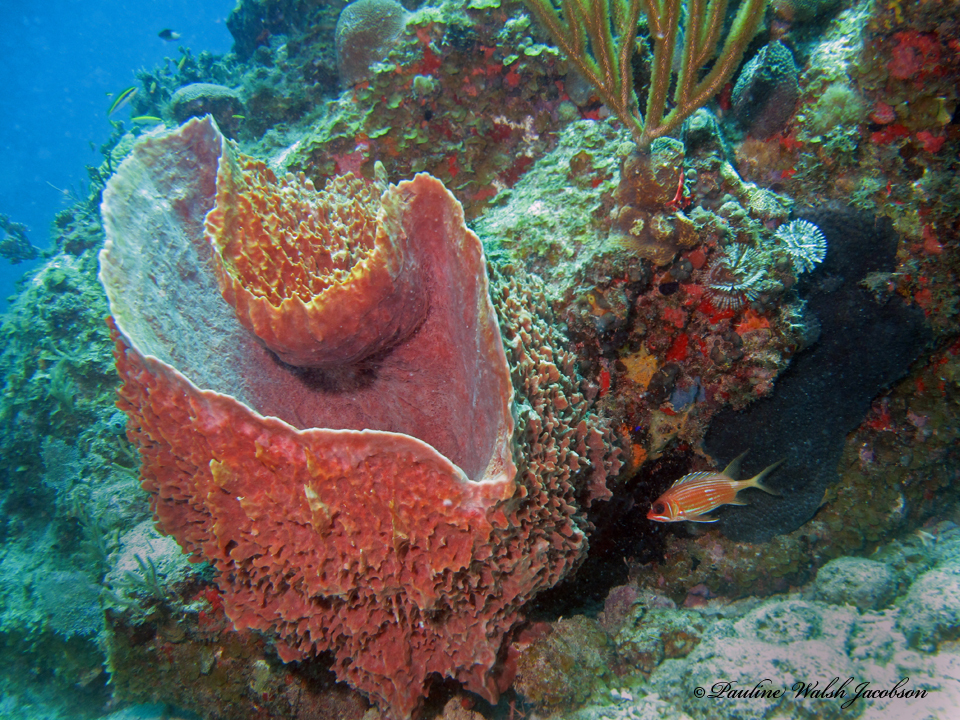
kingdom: Animalia
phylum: Porifera
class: Demospongiae
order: Haplosclerida
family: Petrosiidae
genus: Xestospongia
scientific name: Xestospongia muta
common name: Giant barrel sponge
